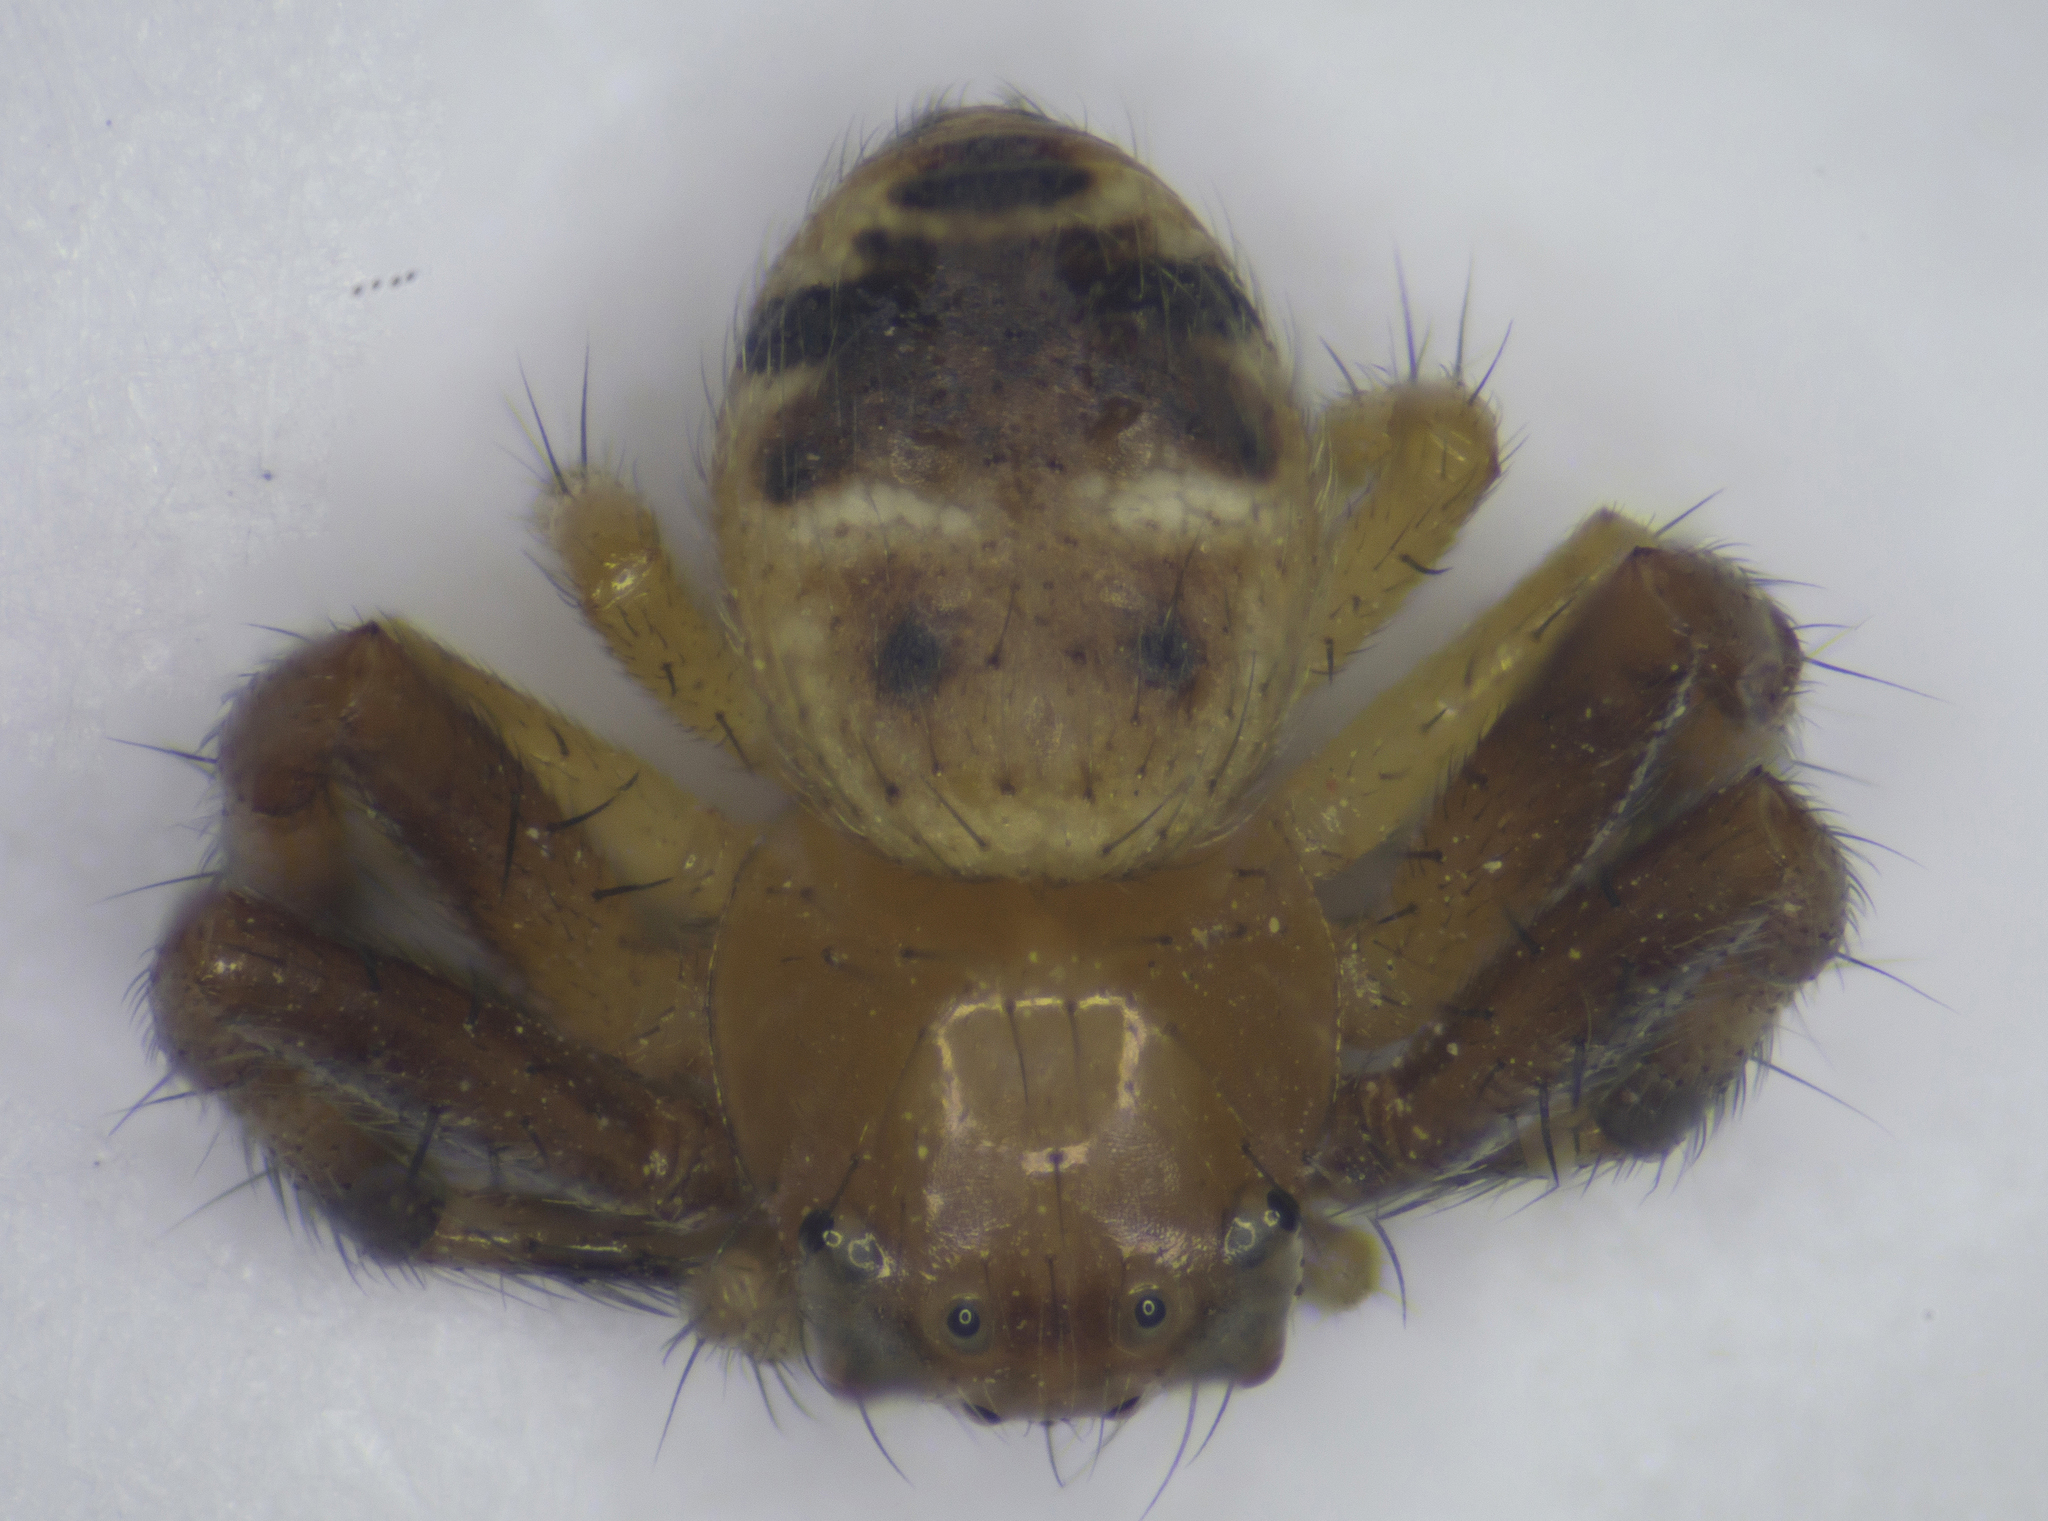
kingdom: Animalia
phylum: Arthropoda
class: Arachnida
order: Araneae
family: Thomisidae
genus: Synema
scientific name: Synema globosum
